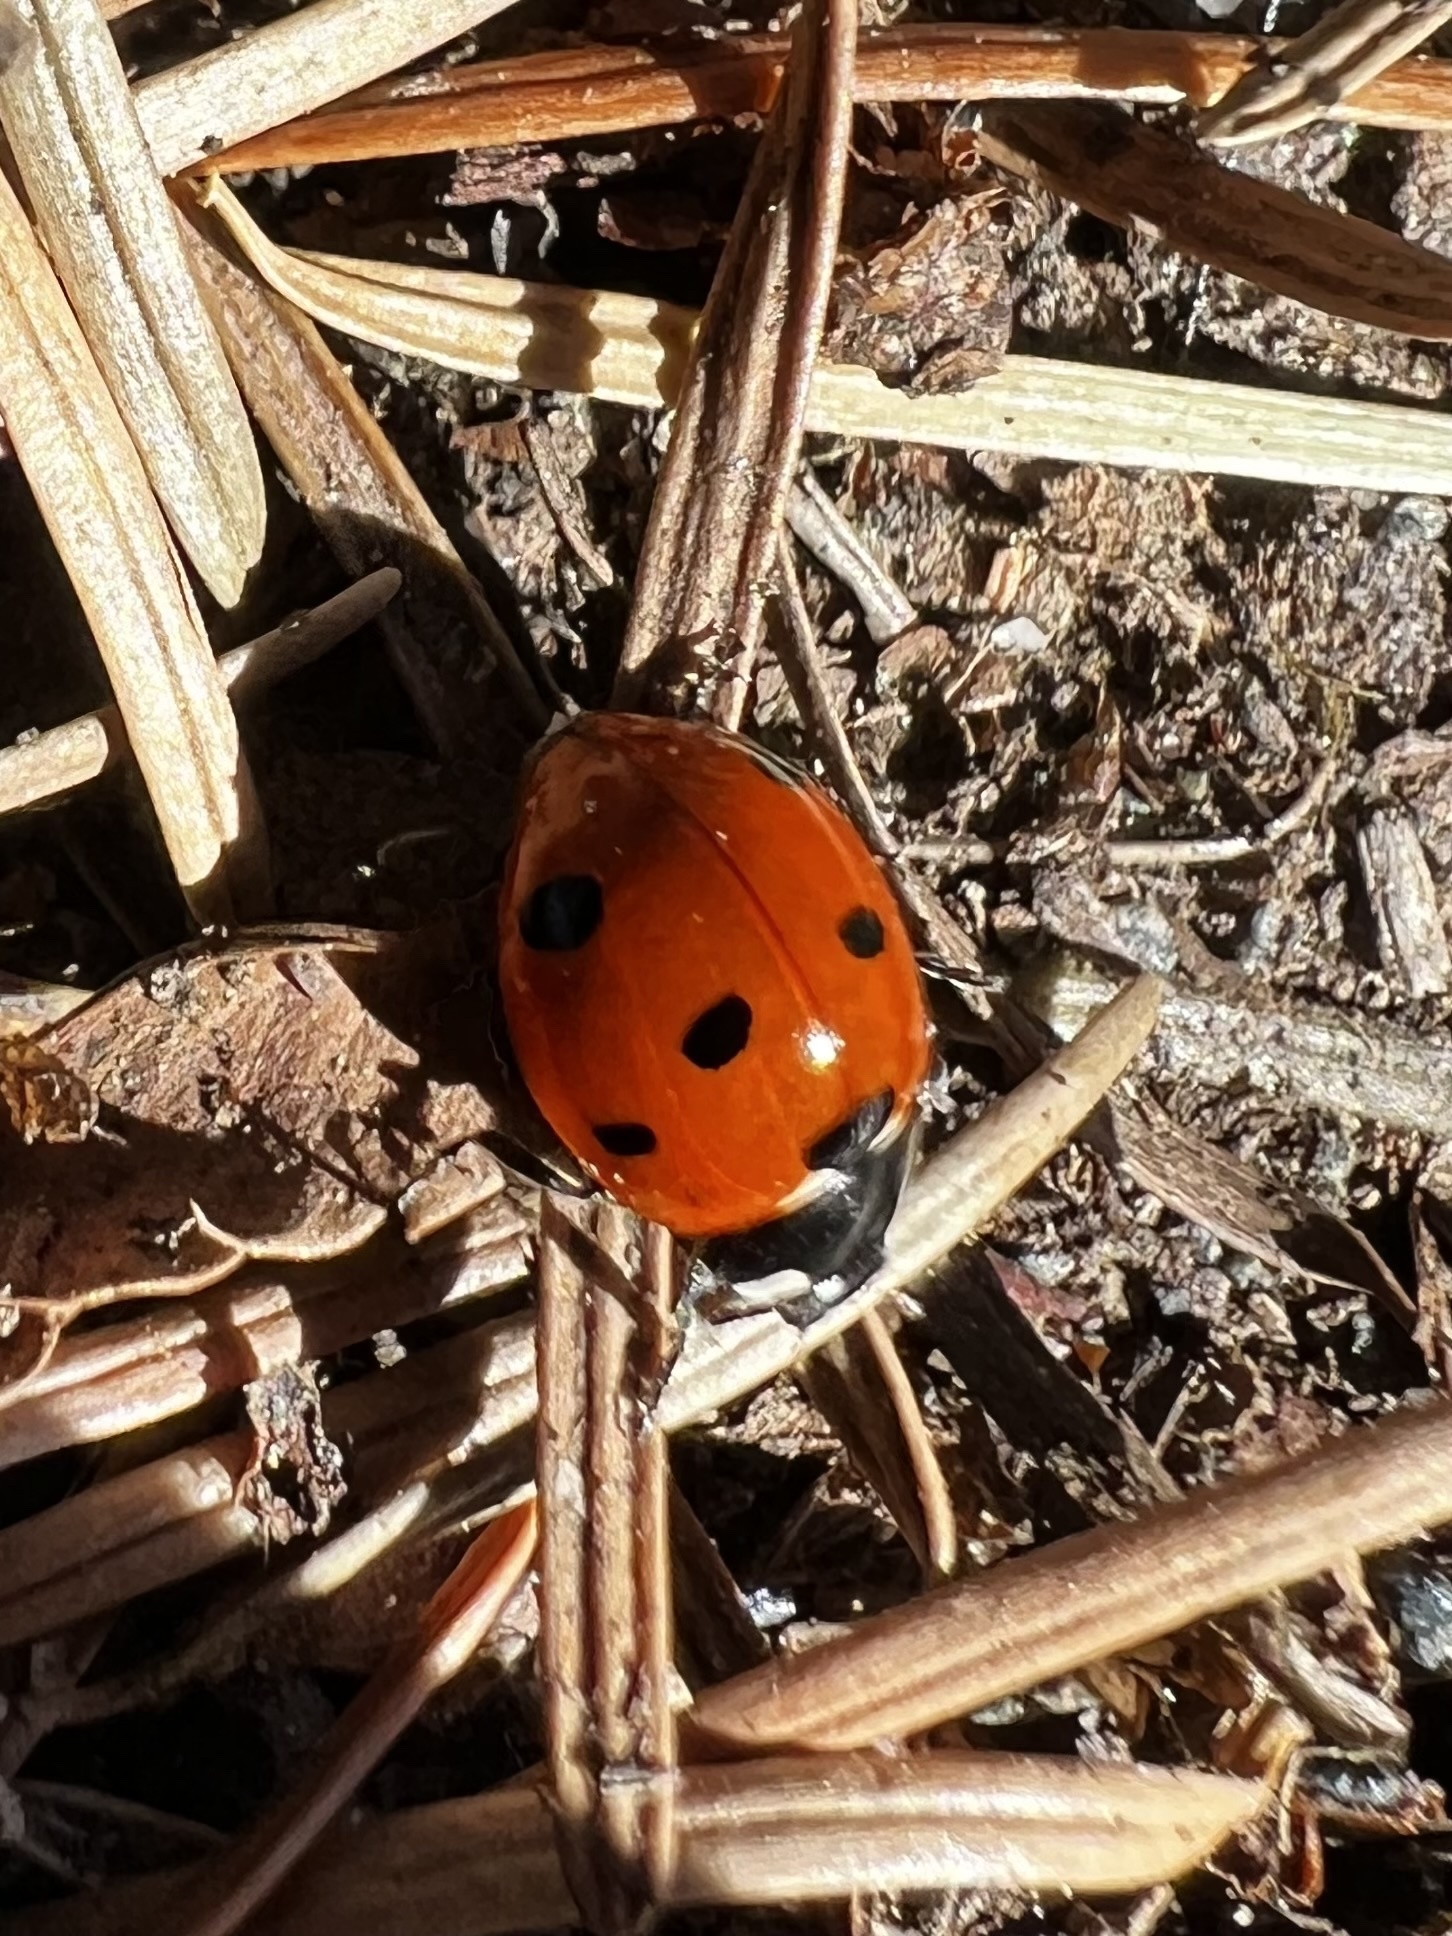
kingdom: Animalia
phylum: Arthropoda
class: Insecta
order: Coleoptera
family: Coccinellidae
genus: Coccinella
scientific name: Coccinella septempunctata
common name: Sevenspotted lady beetle
